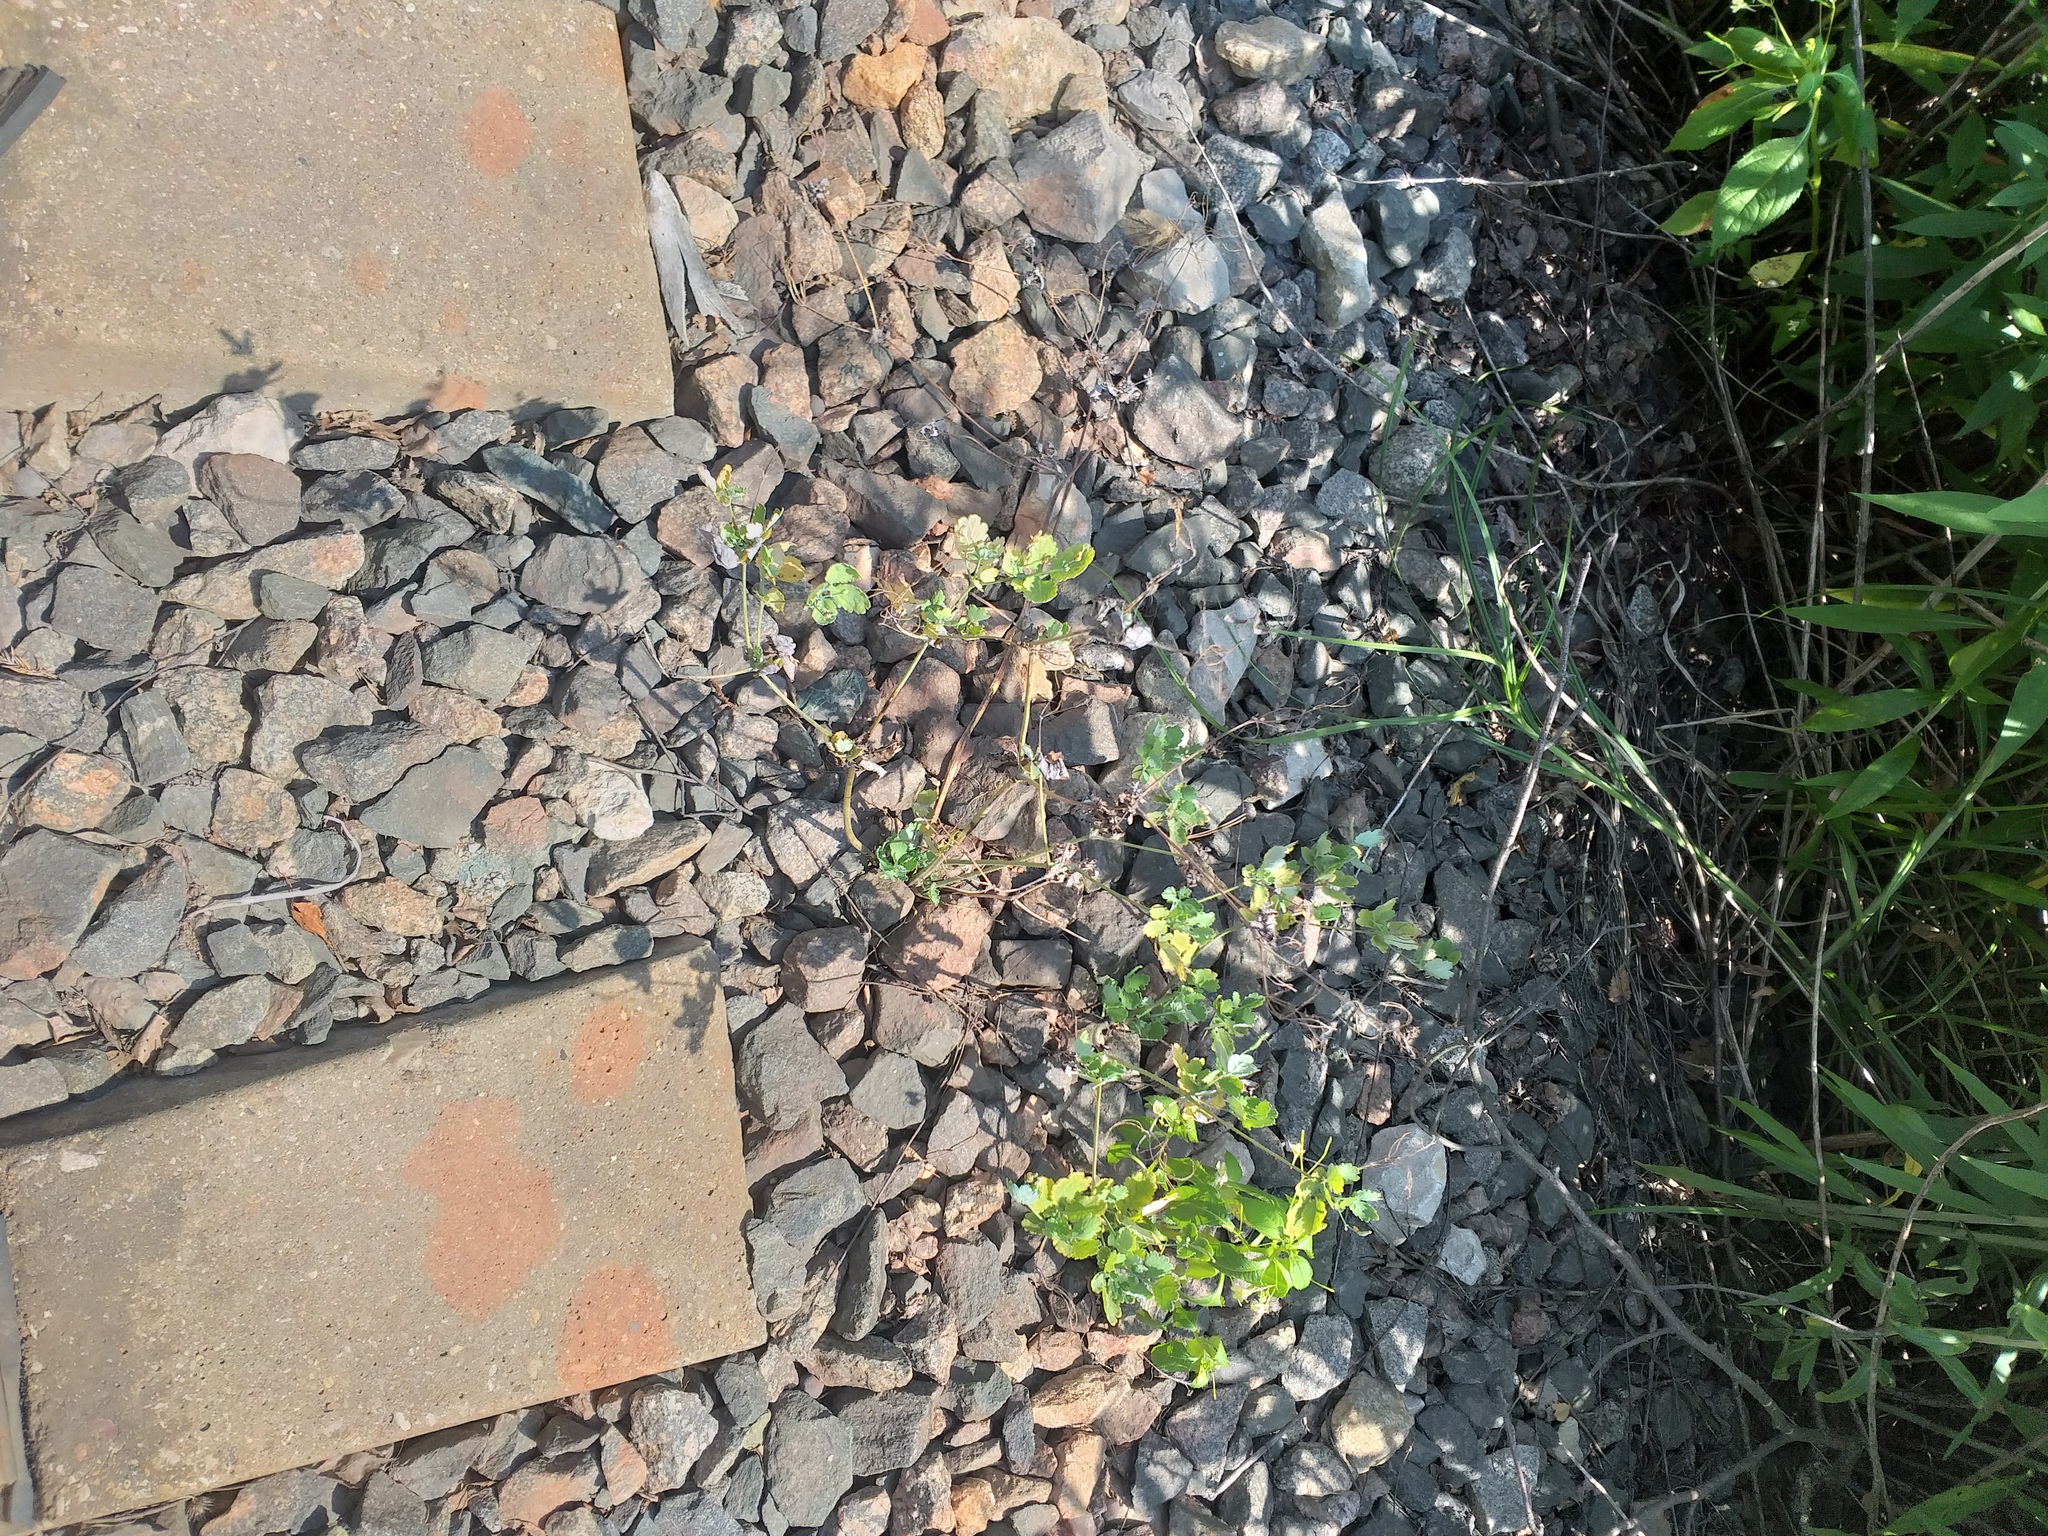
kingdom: Plantae
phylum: Tracheophyta
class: Magnoliopsida
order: Ranunculales
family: Papaveraceae
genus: Chelidonium
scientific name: Chelidonium majus
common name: Greater celandine
